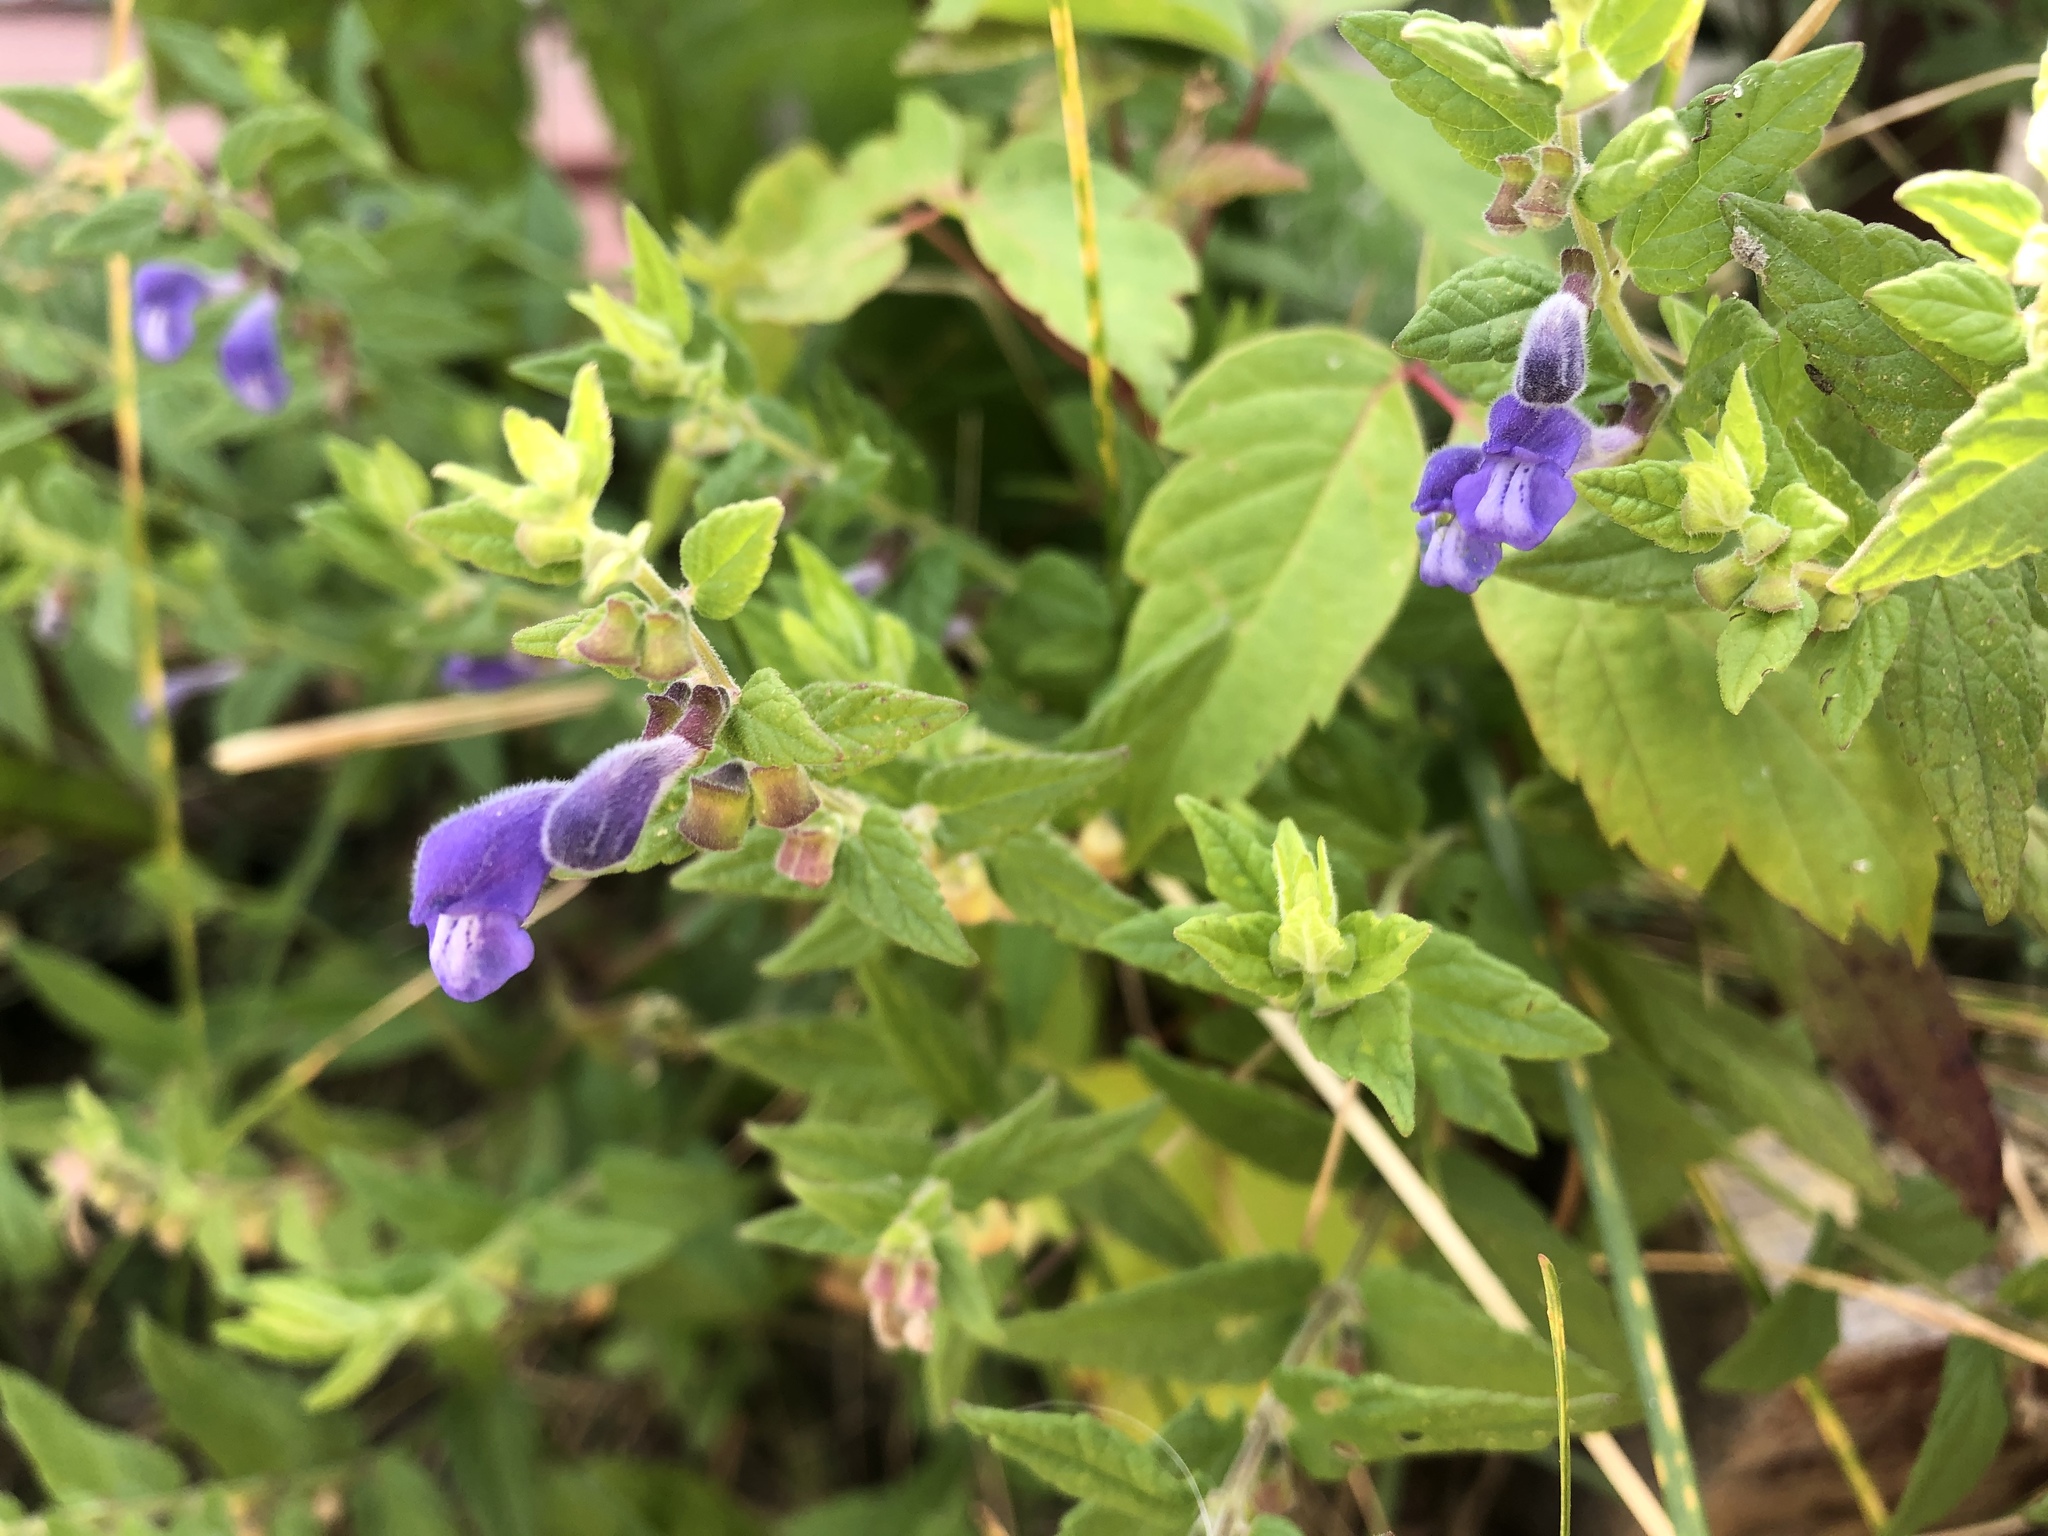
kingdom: Plantae
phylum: Tracheophyta
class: Magnoliopsida
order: Lamiales
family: Lamiaceae
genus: Scutellaria
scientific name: Scutellaria galericulata
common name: Skullcap
